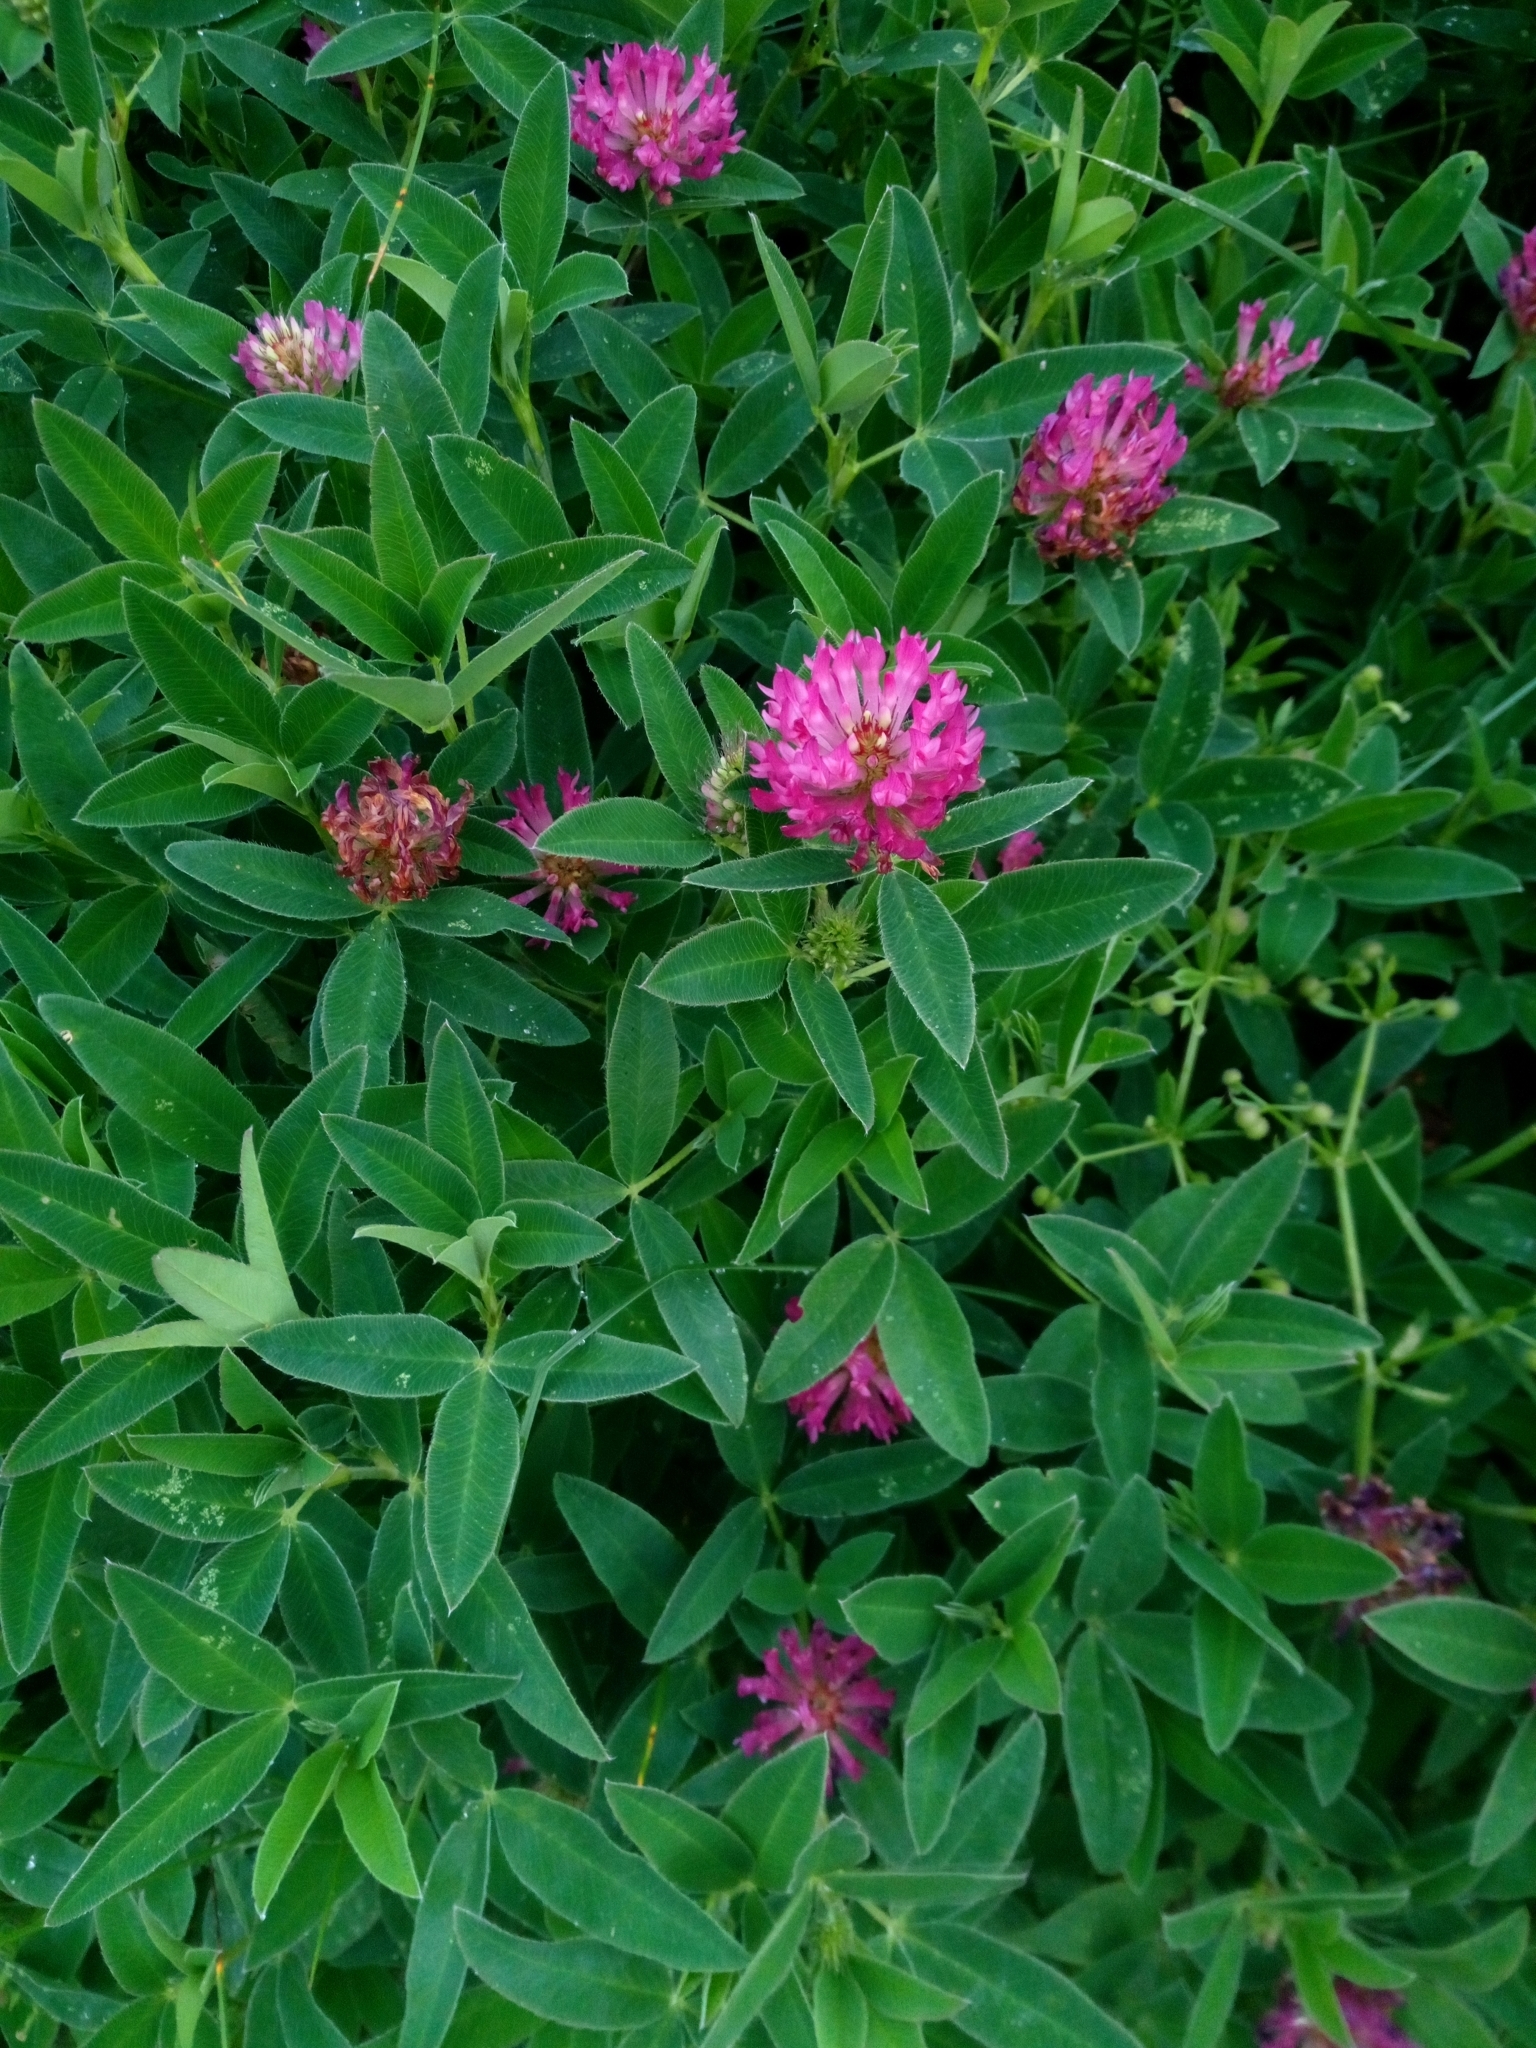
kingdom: Plantae
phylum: Tracheophyta
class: Magnoliopsida
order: Fabales
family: Fabaceae
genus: Trifolium
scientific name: Trifolium medium
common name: Zigzag clover
